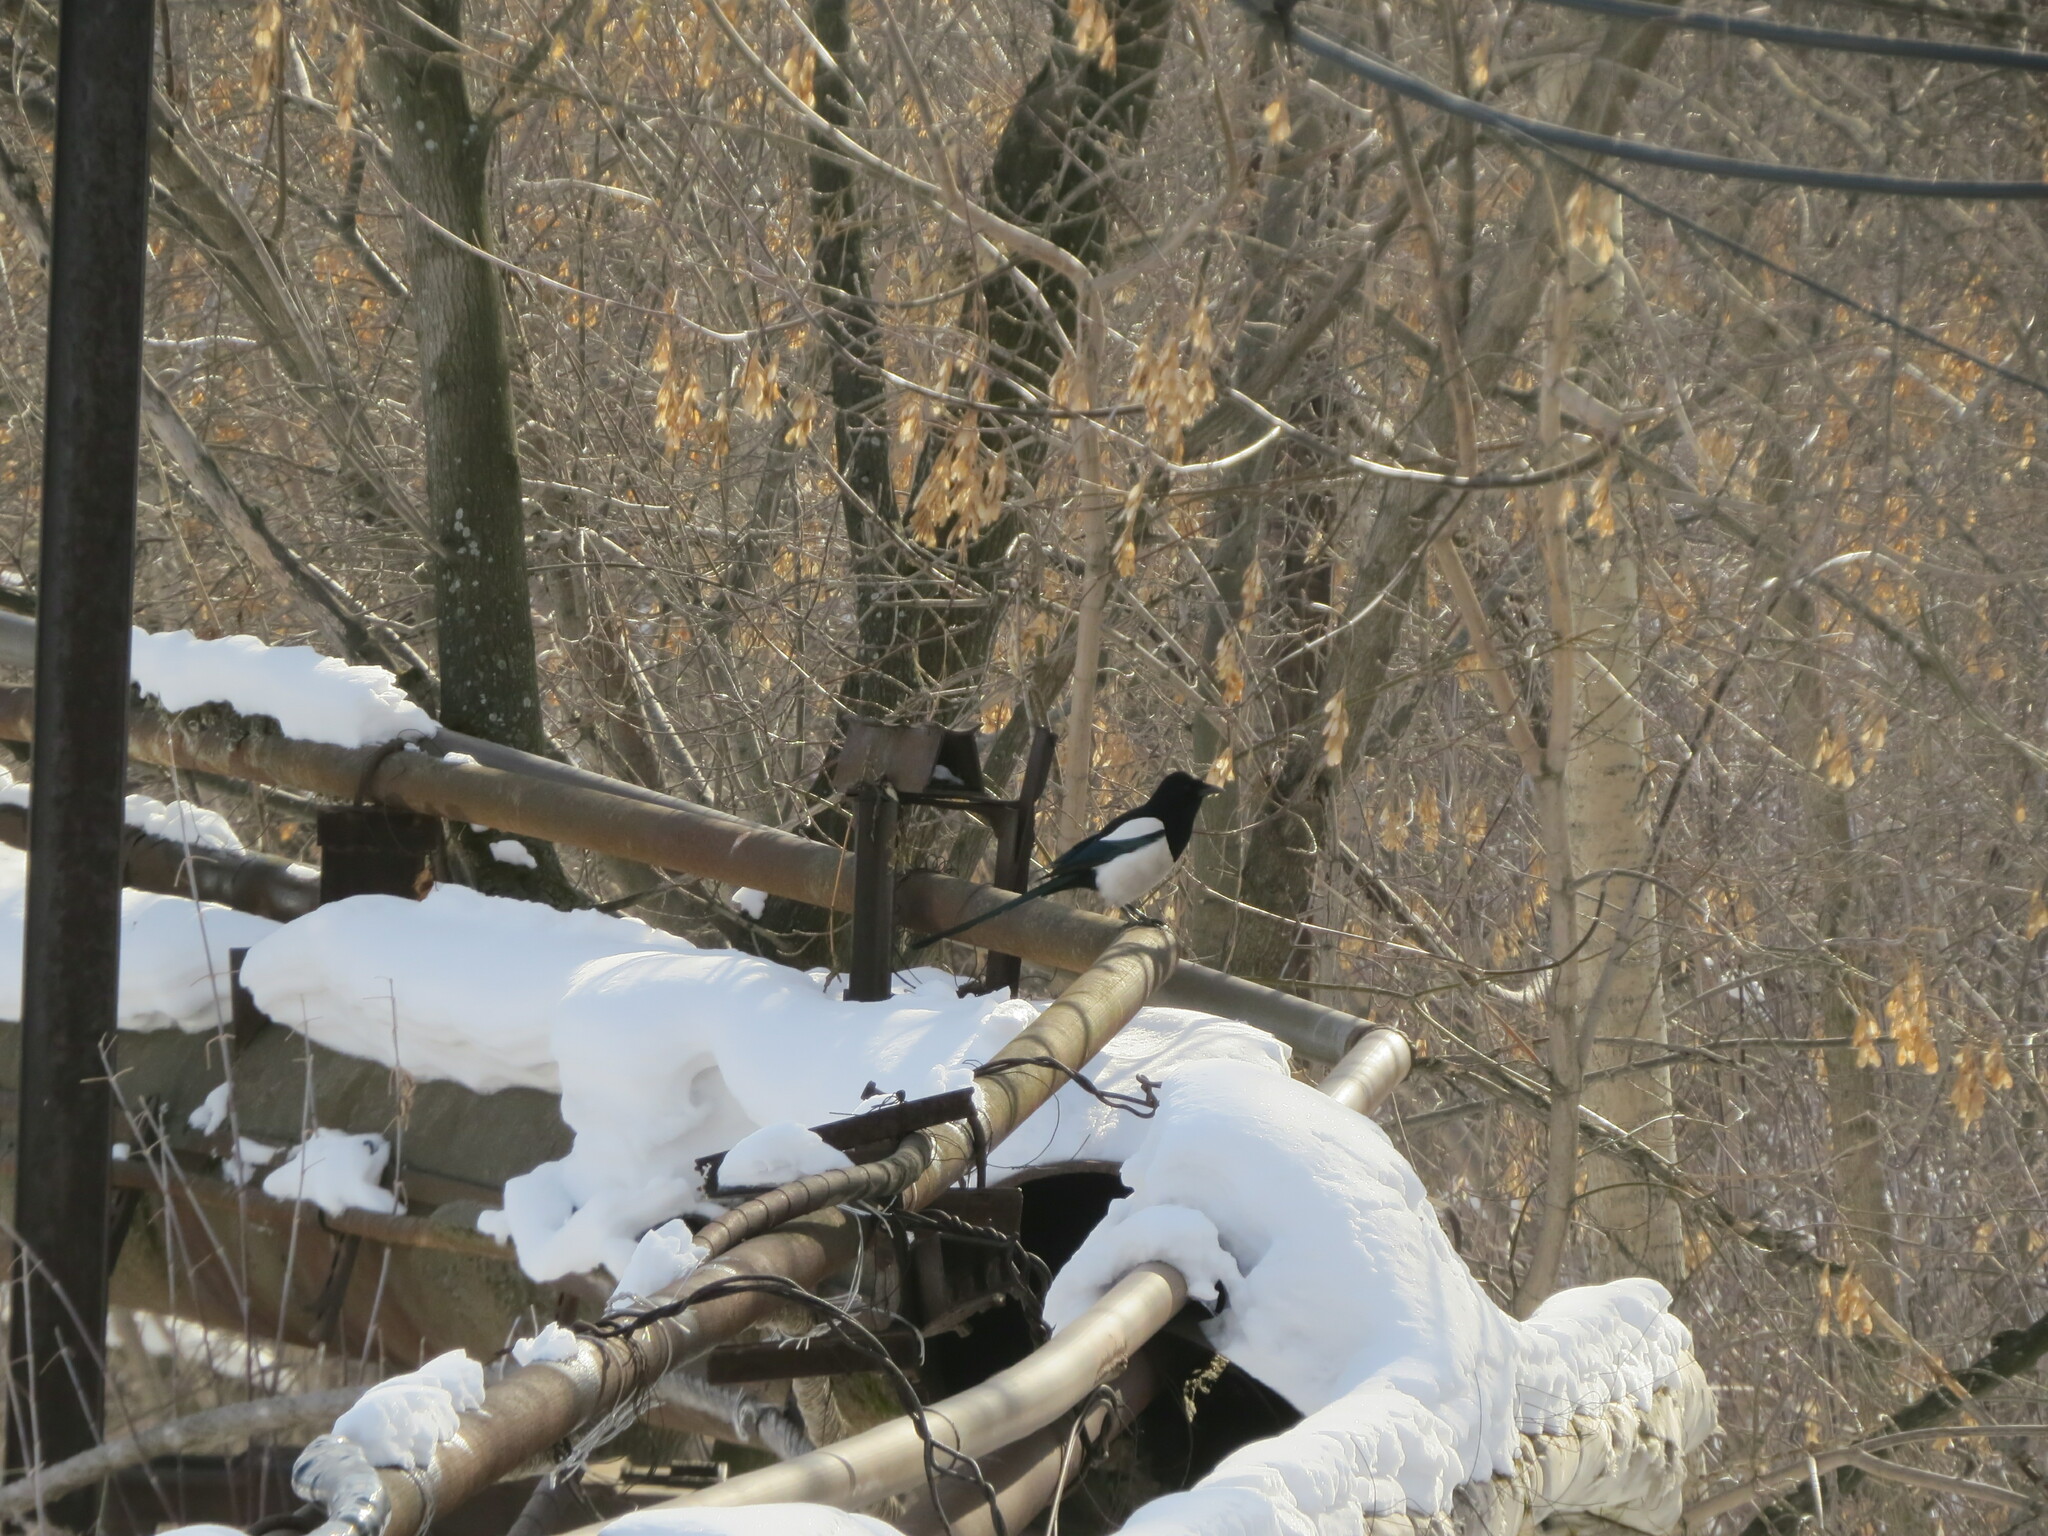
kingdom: Animalia
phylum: Chordata
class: Aves
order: Passeriformes
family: Corvidae
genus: Pica
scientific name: Pica pica
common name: Eurasian magpie
